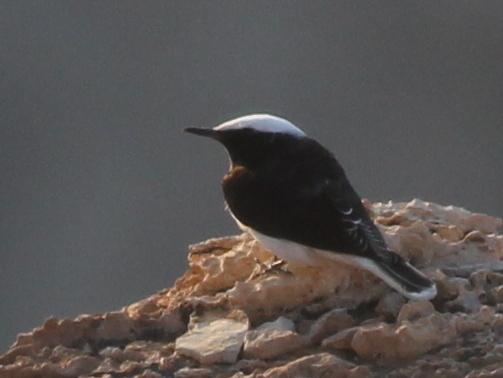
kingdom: Animalia
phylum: Chordata
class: Aves
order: Passeriformes
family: Muscicapidae
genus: Oenanthe
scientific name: Oenanthe monacha
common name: Hooded wheatear
